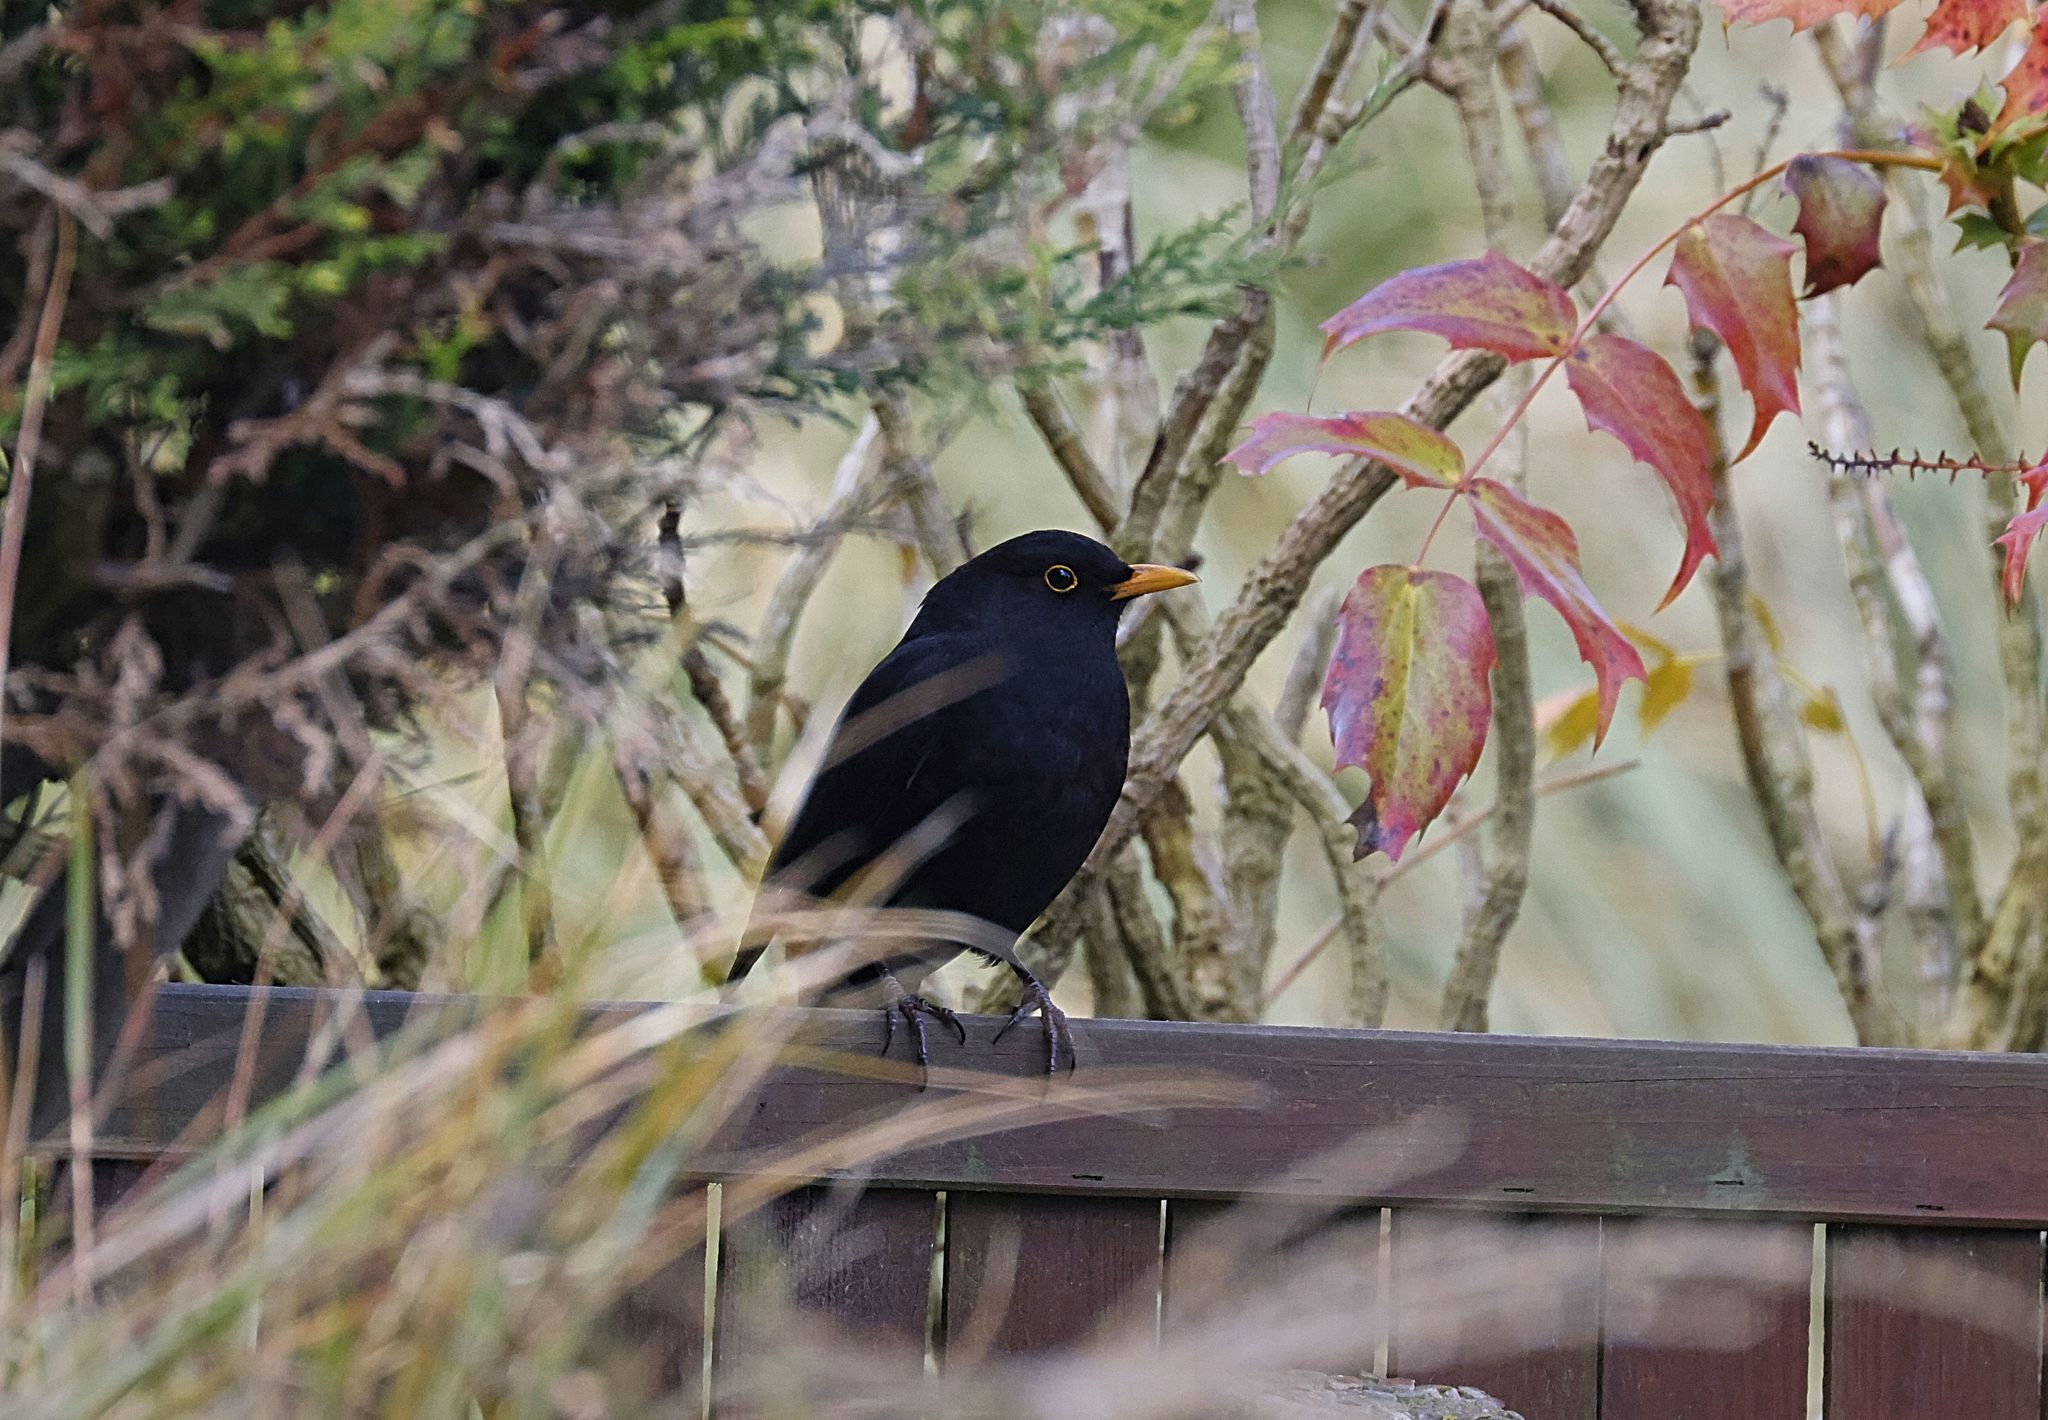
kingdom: Animalia
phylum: Chordata
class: Aves
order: Passeriformes
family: Turdidae
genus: Turdus
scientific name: Turdus merula
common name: Common blackbird
